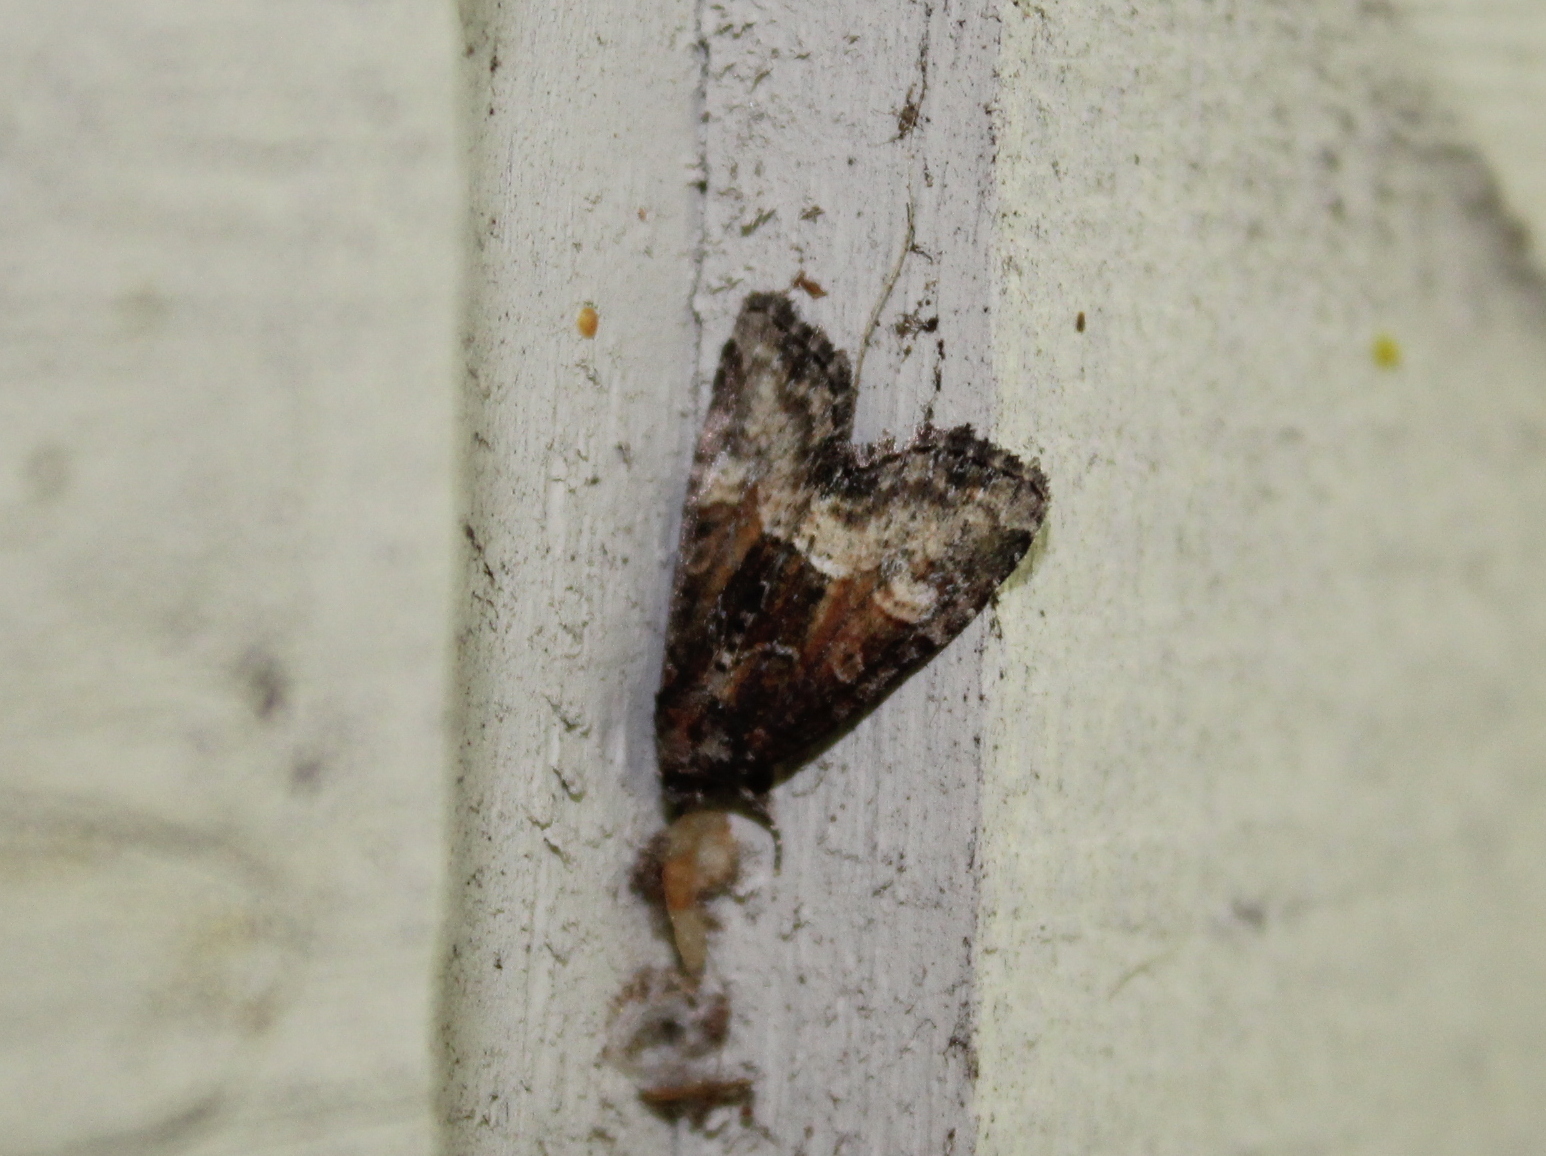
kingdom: Animalia
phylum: Arthropoda
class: Insecta
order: Lepidoptera
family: Noctuidae
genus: Neoligia
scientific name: Neoligia subjuncta
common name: Connected brocade
